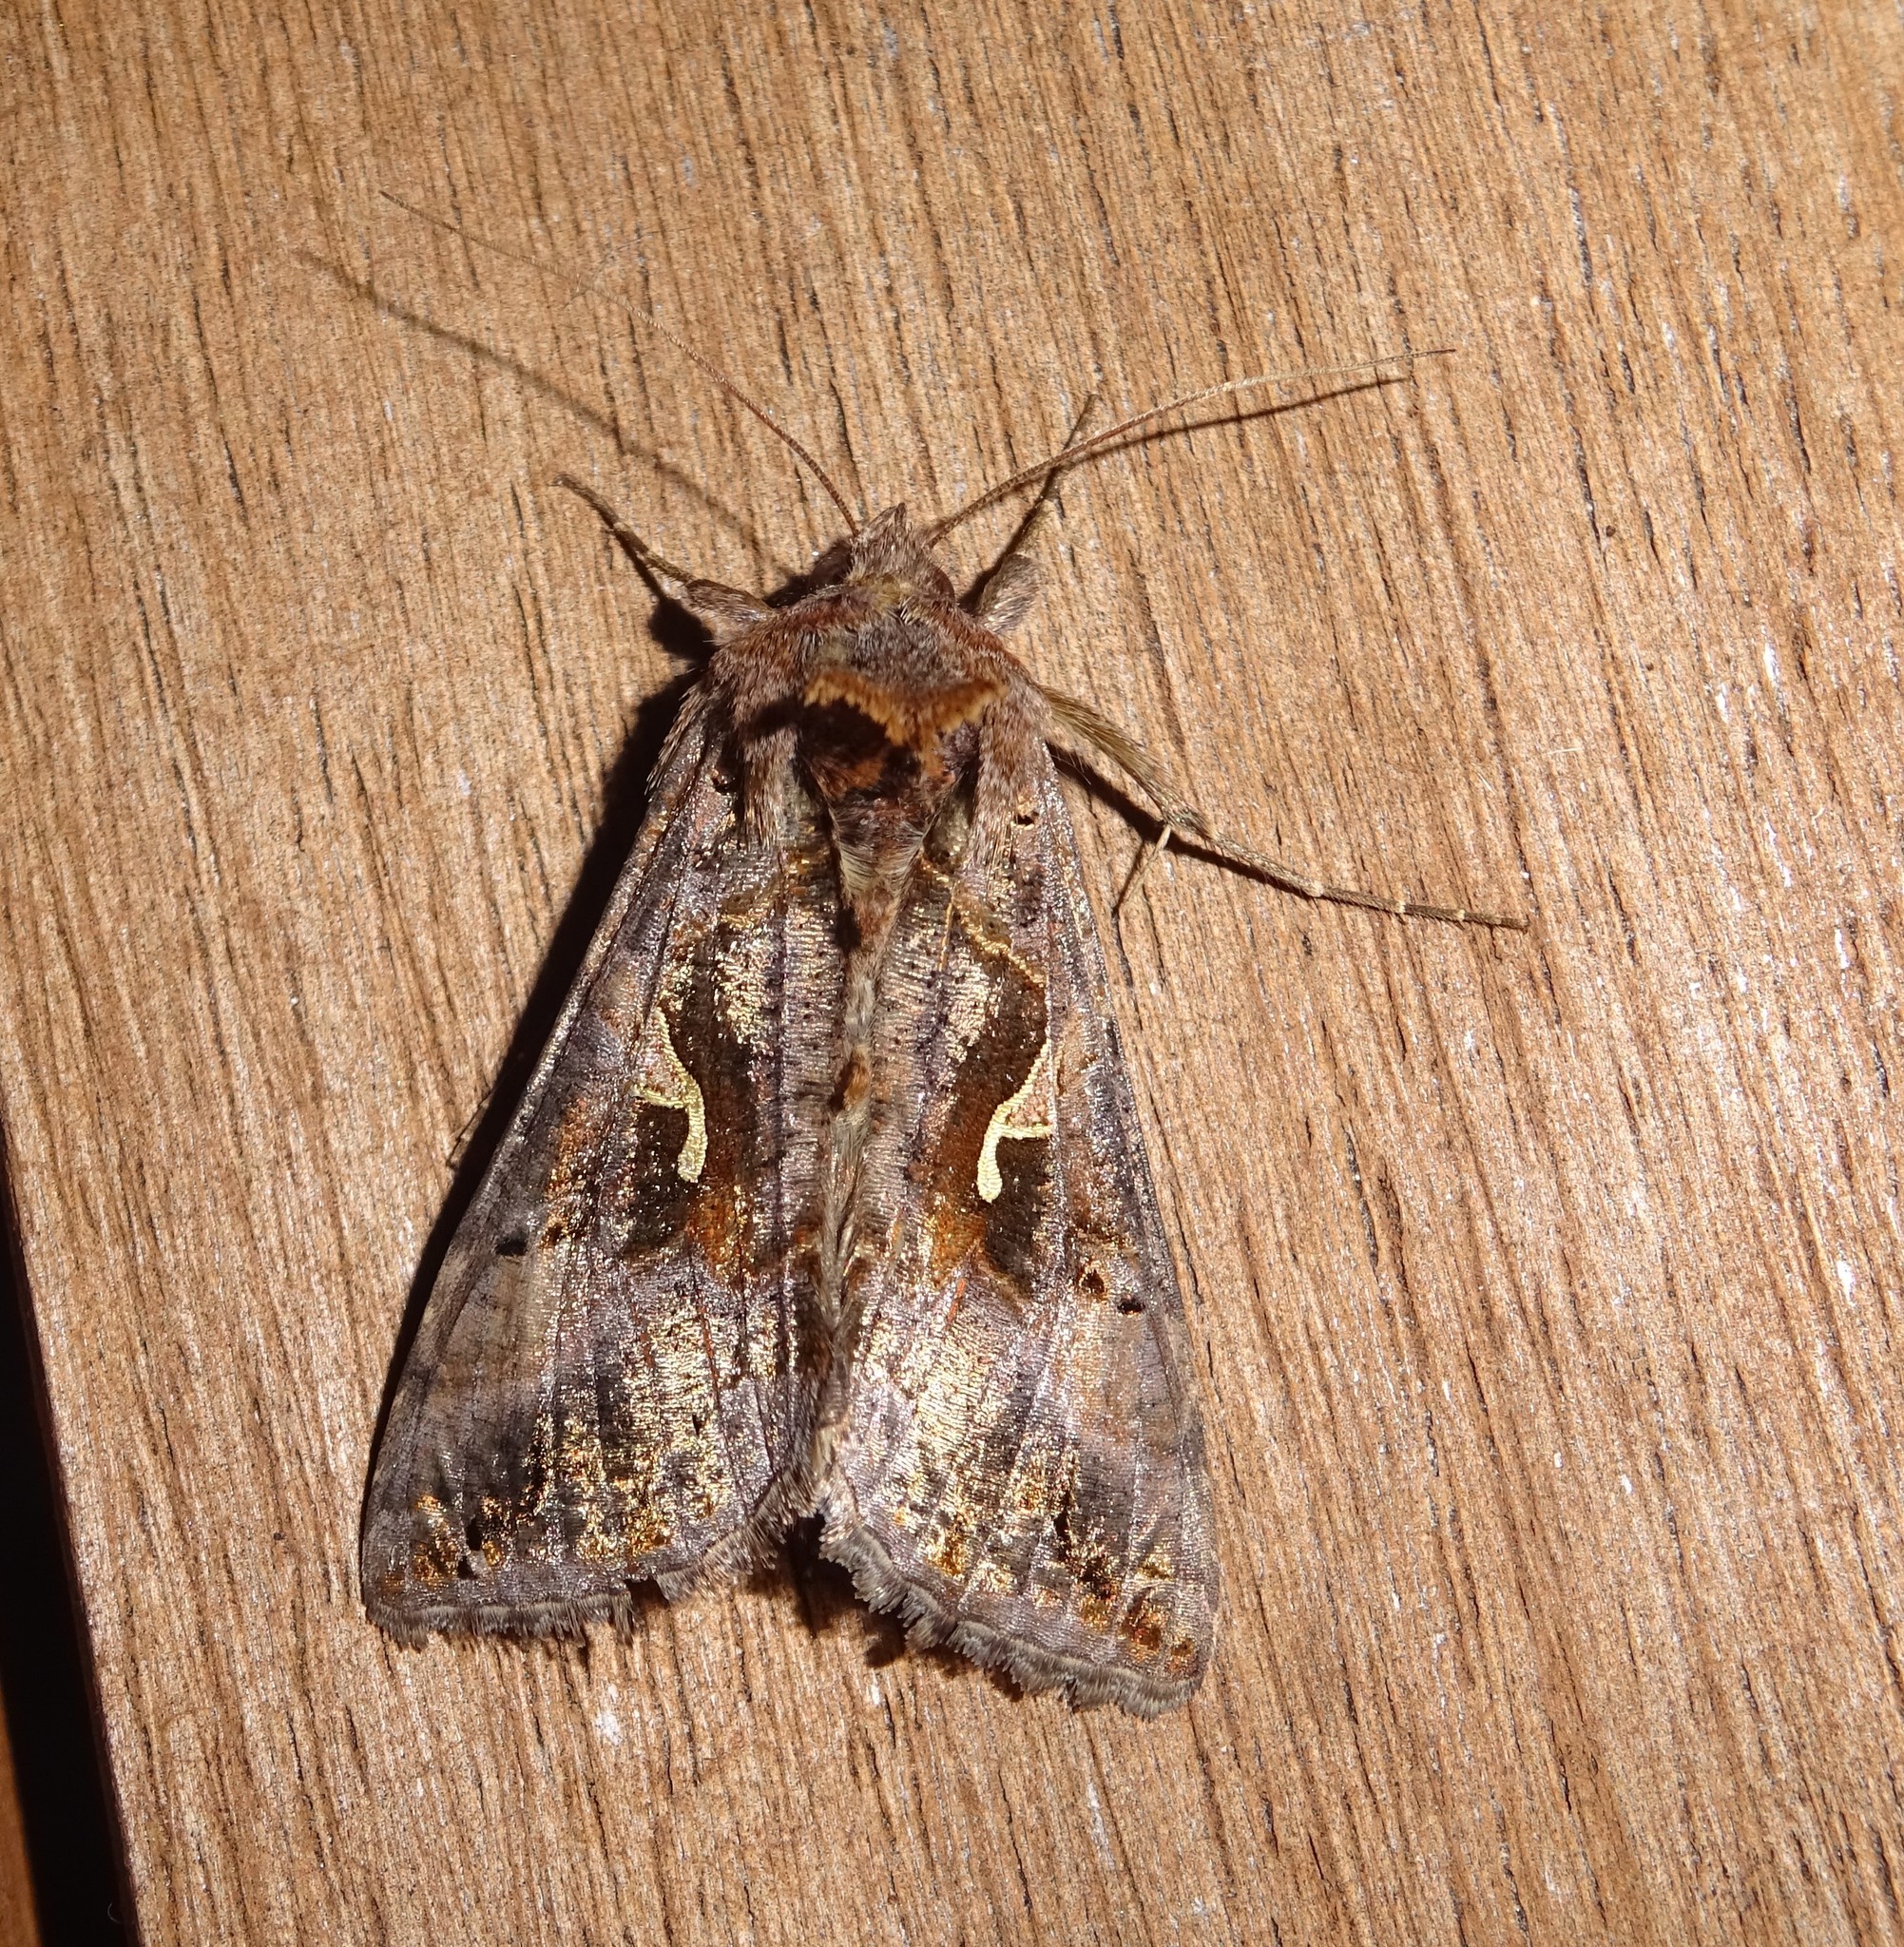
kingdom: Animalia
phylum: Arthropoda
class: Insecta
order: Lepidoptera
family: Noctuidae
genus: Autographa
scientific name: Autographa gamma
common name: Silver y
